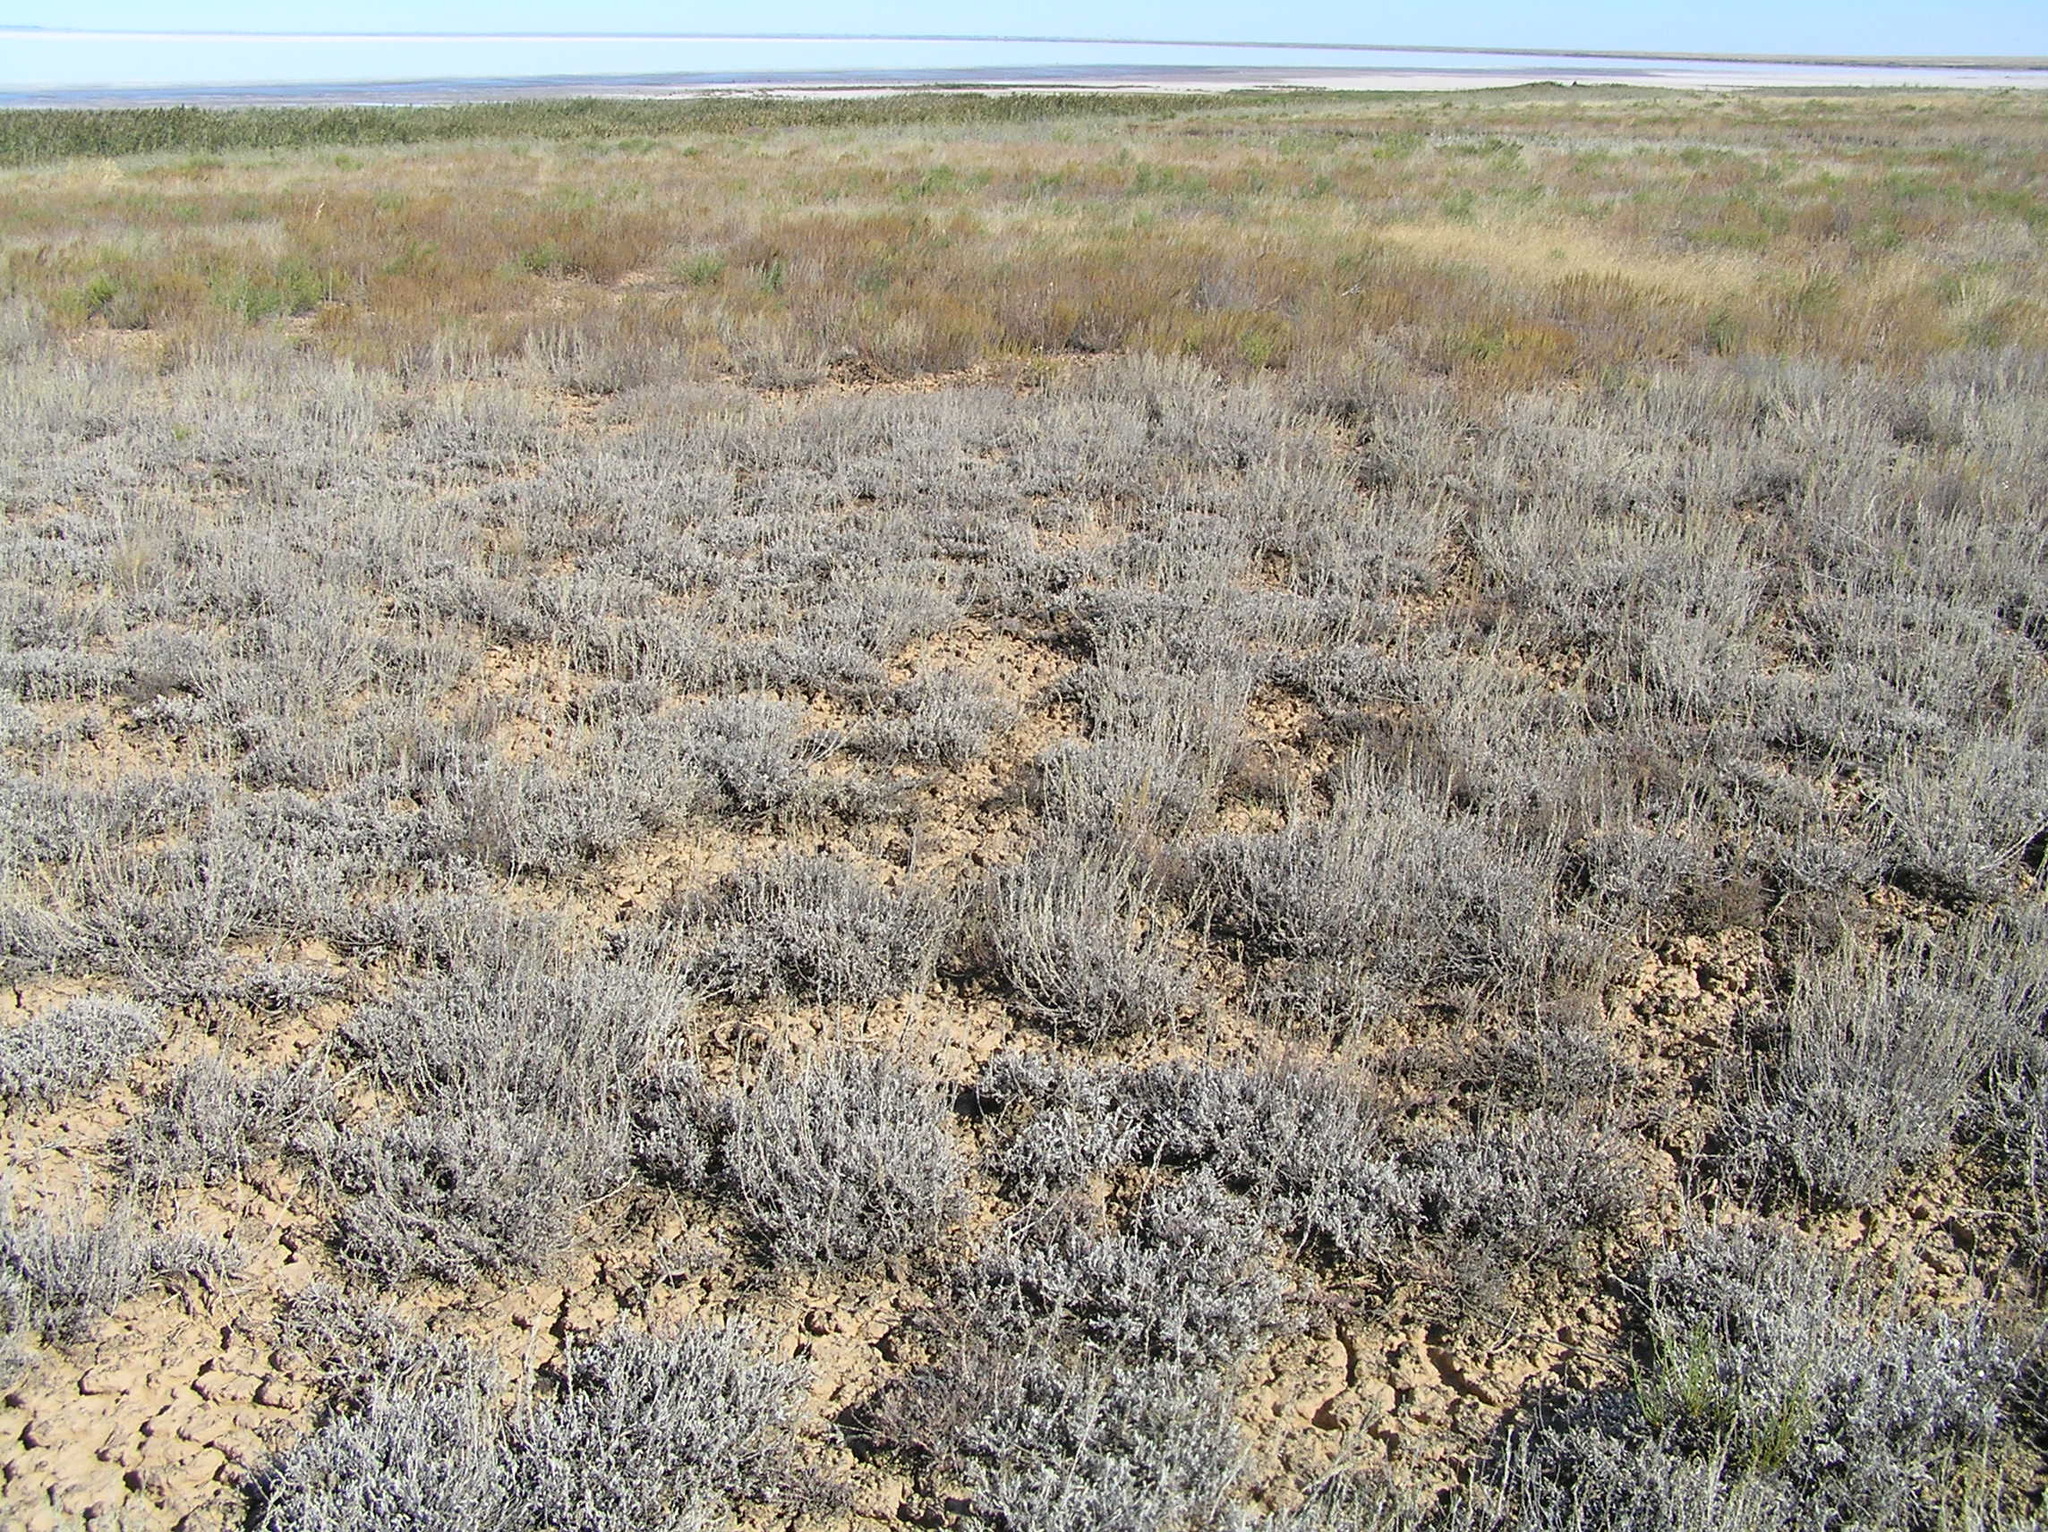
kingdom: Plantae
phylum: Tracheophyta
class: Magnoliopsida
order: Asterales
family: Asteraceae
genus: Artemisia
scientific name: Artemisia lercheana
